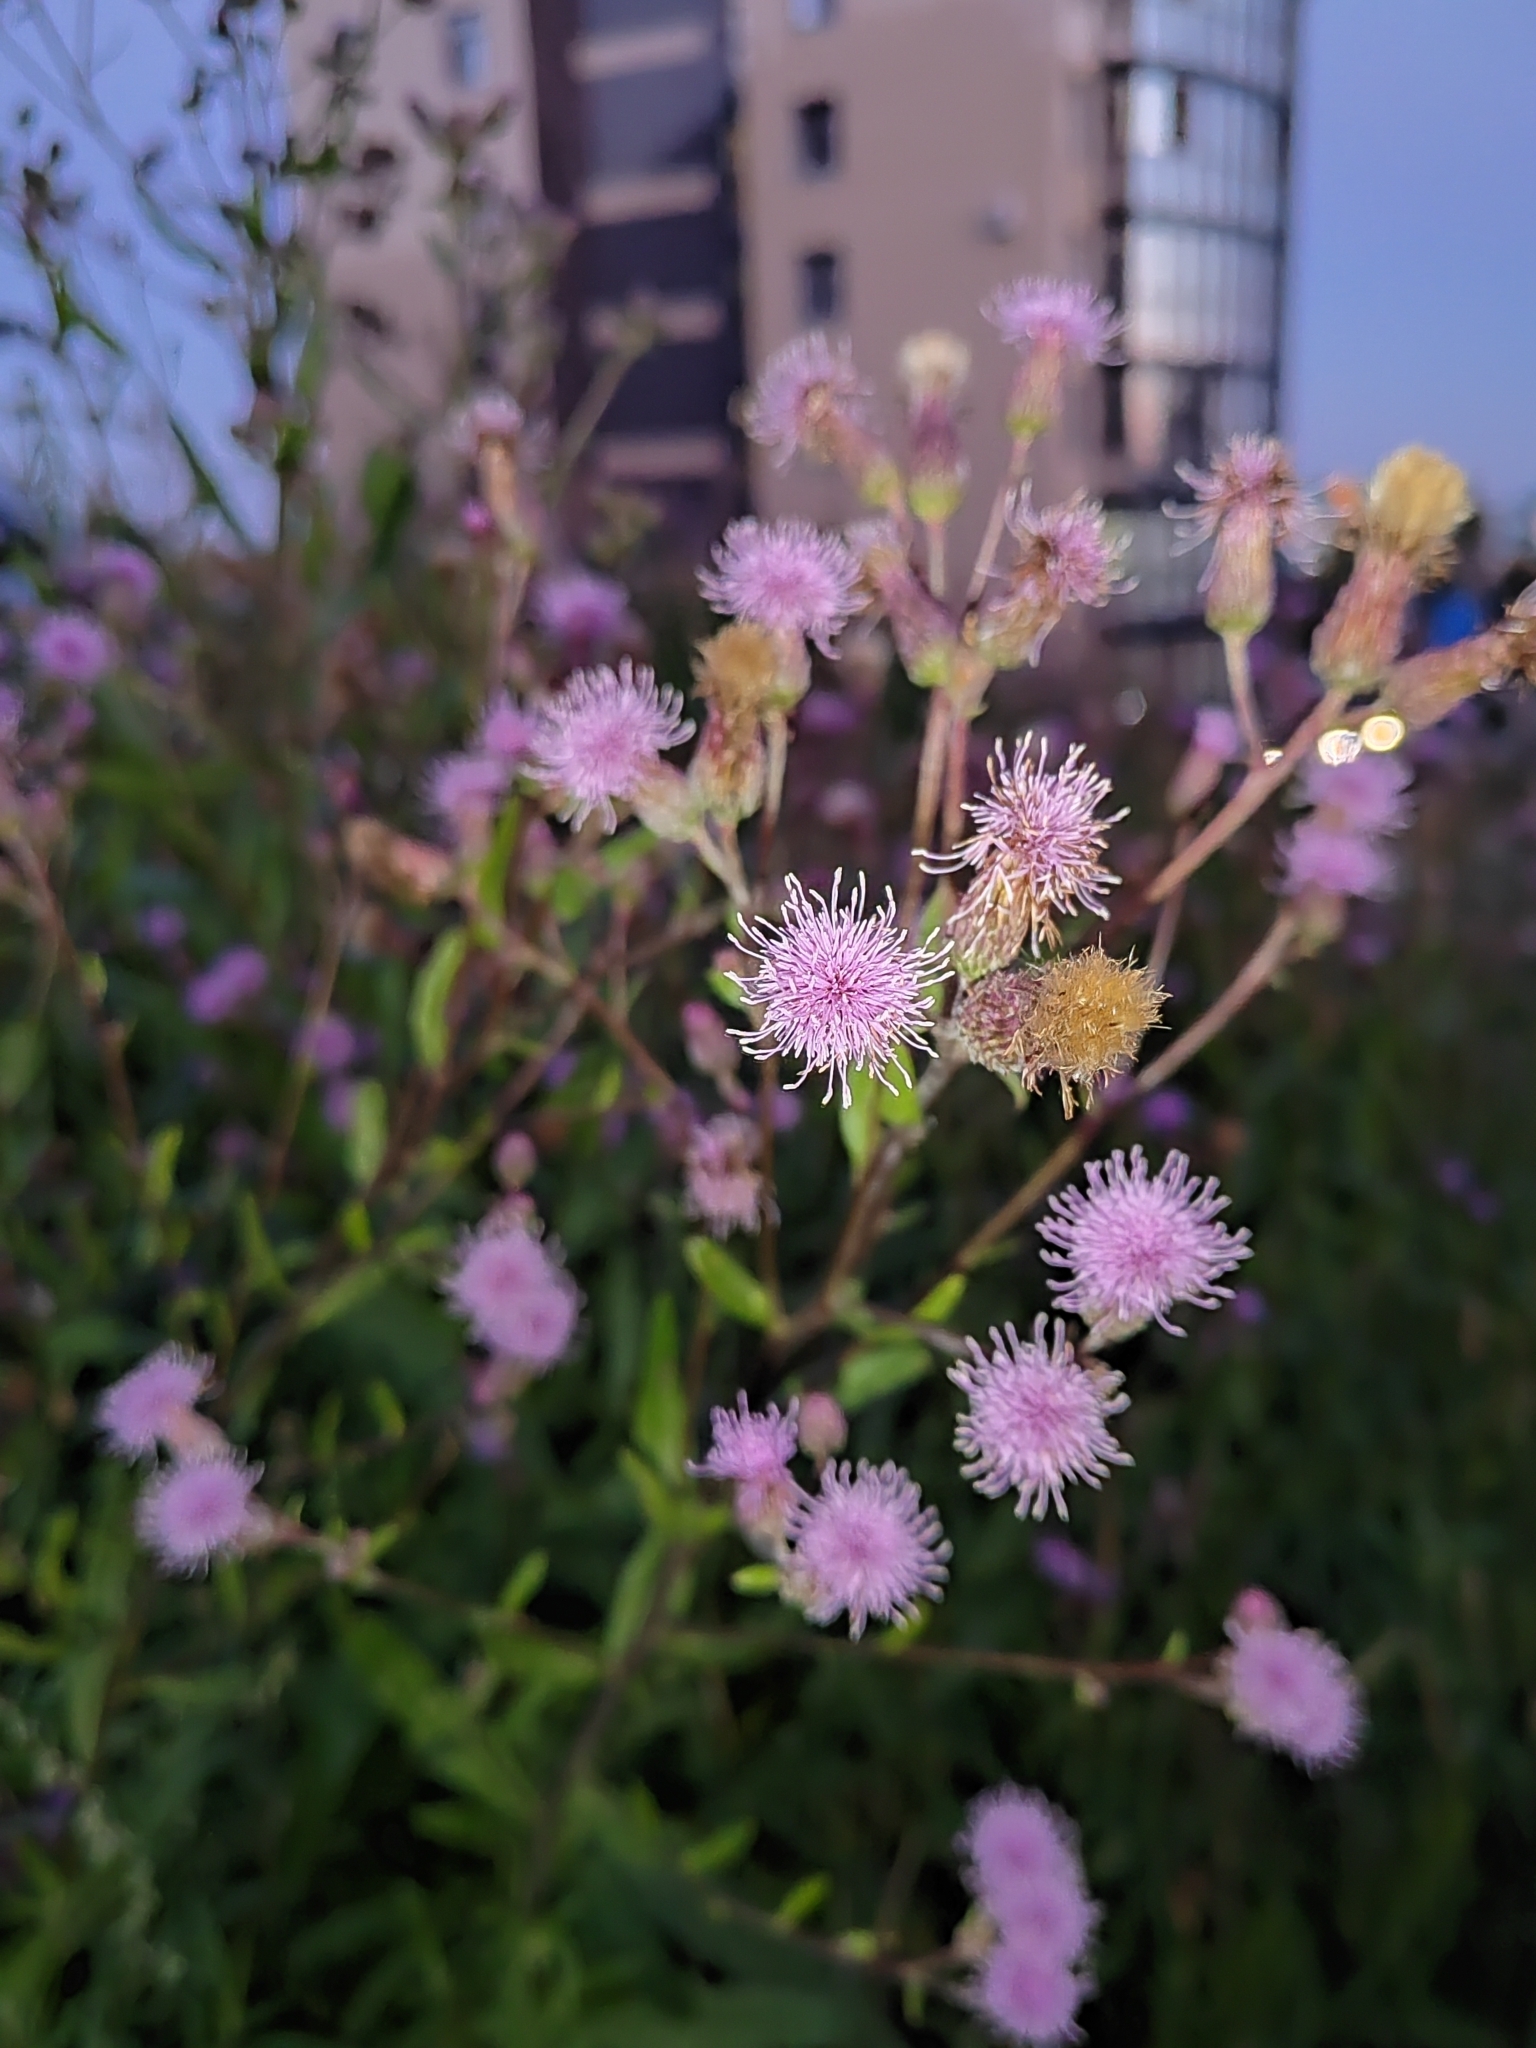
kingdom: Plantae
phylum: Tracheophyta
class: Magnoliopsida
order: Asterales
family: Asteraceae
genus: Cirsium
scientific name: Cirsium arvense
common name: Creeping thistle
